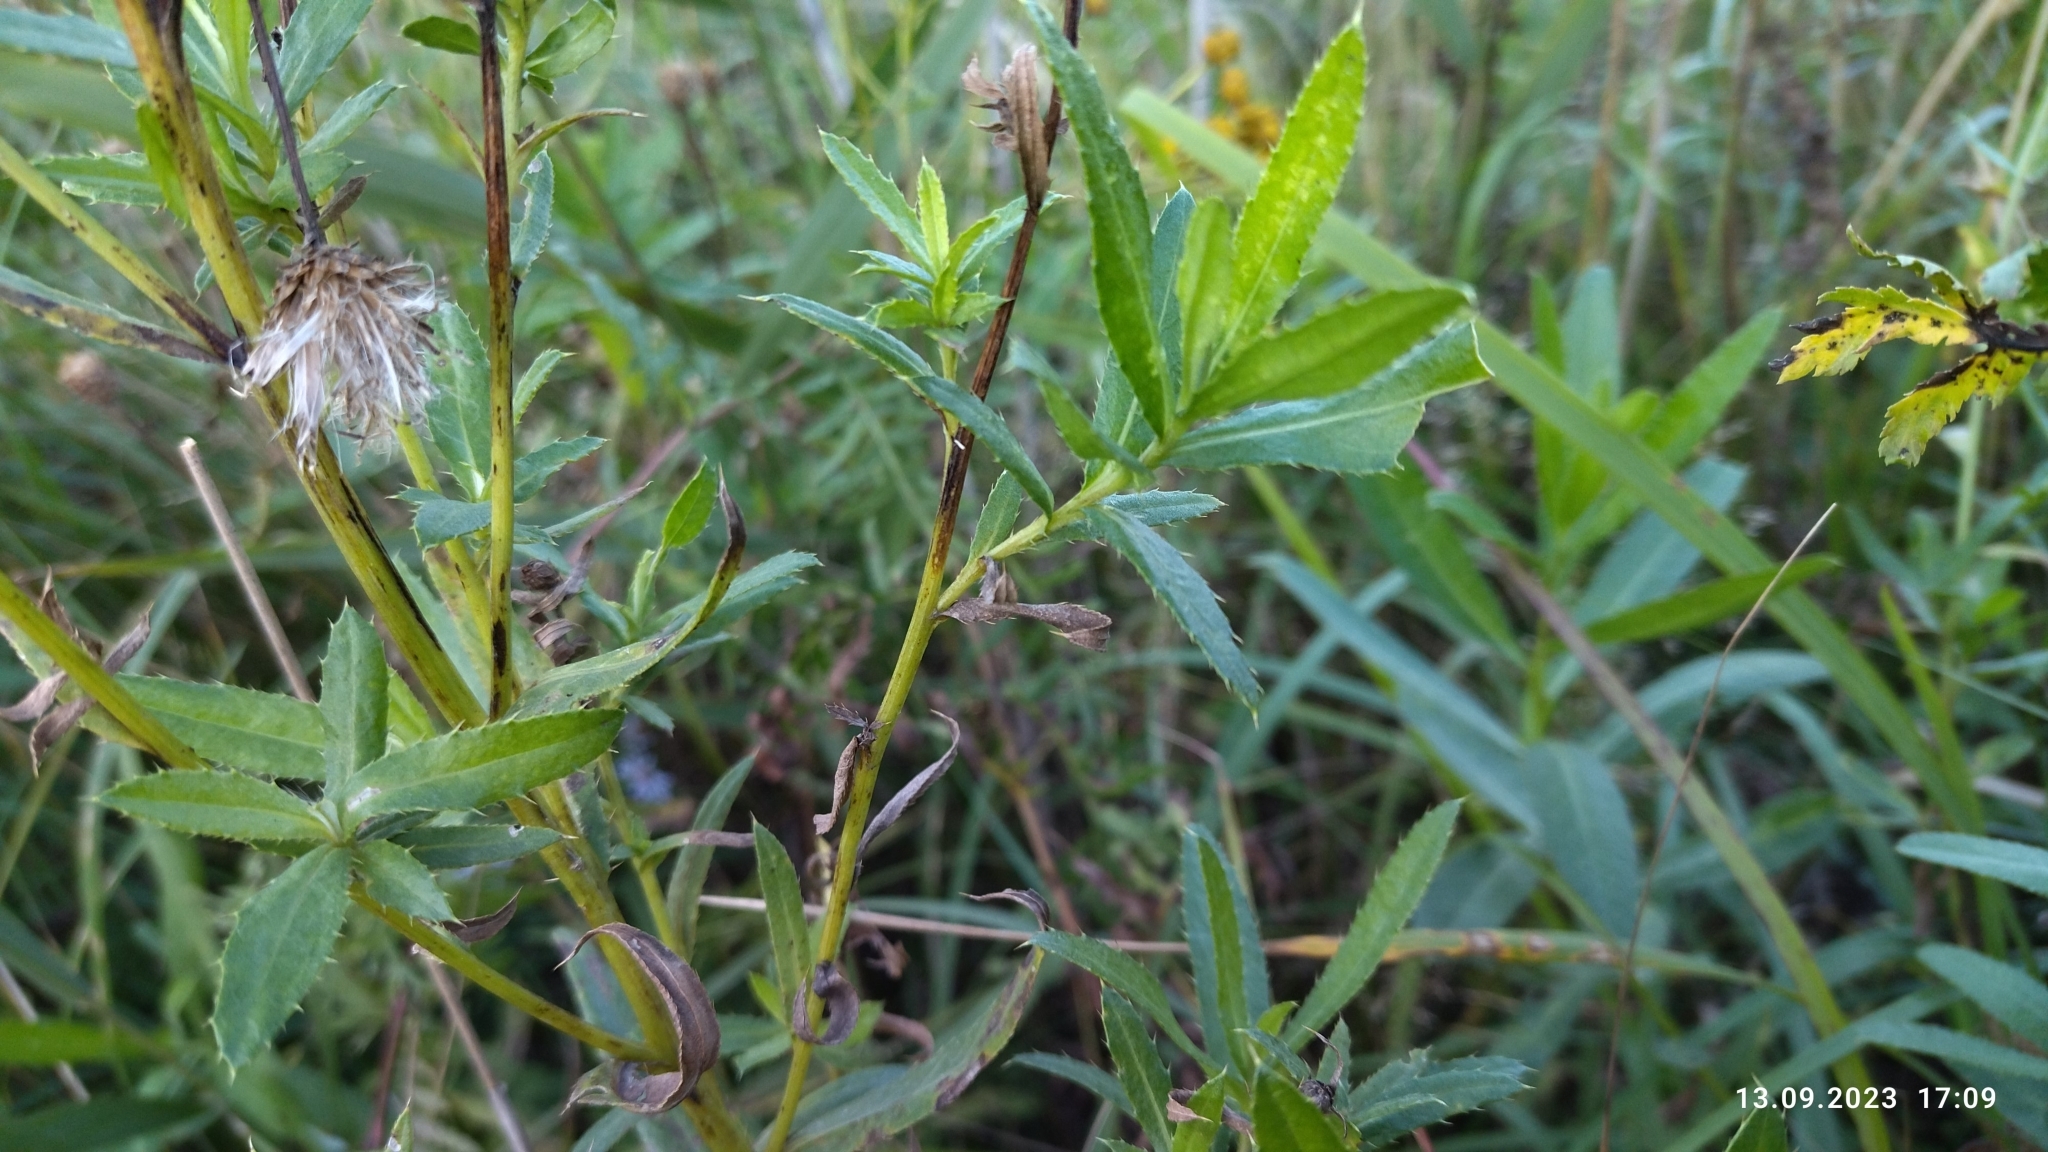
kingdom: Plantae
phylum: Tracheophyta
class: Magnoliopsida
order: Asterales
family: Asteraceae
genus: Cirsium
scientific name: Cirsium arvense
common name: Creeping thistle
